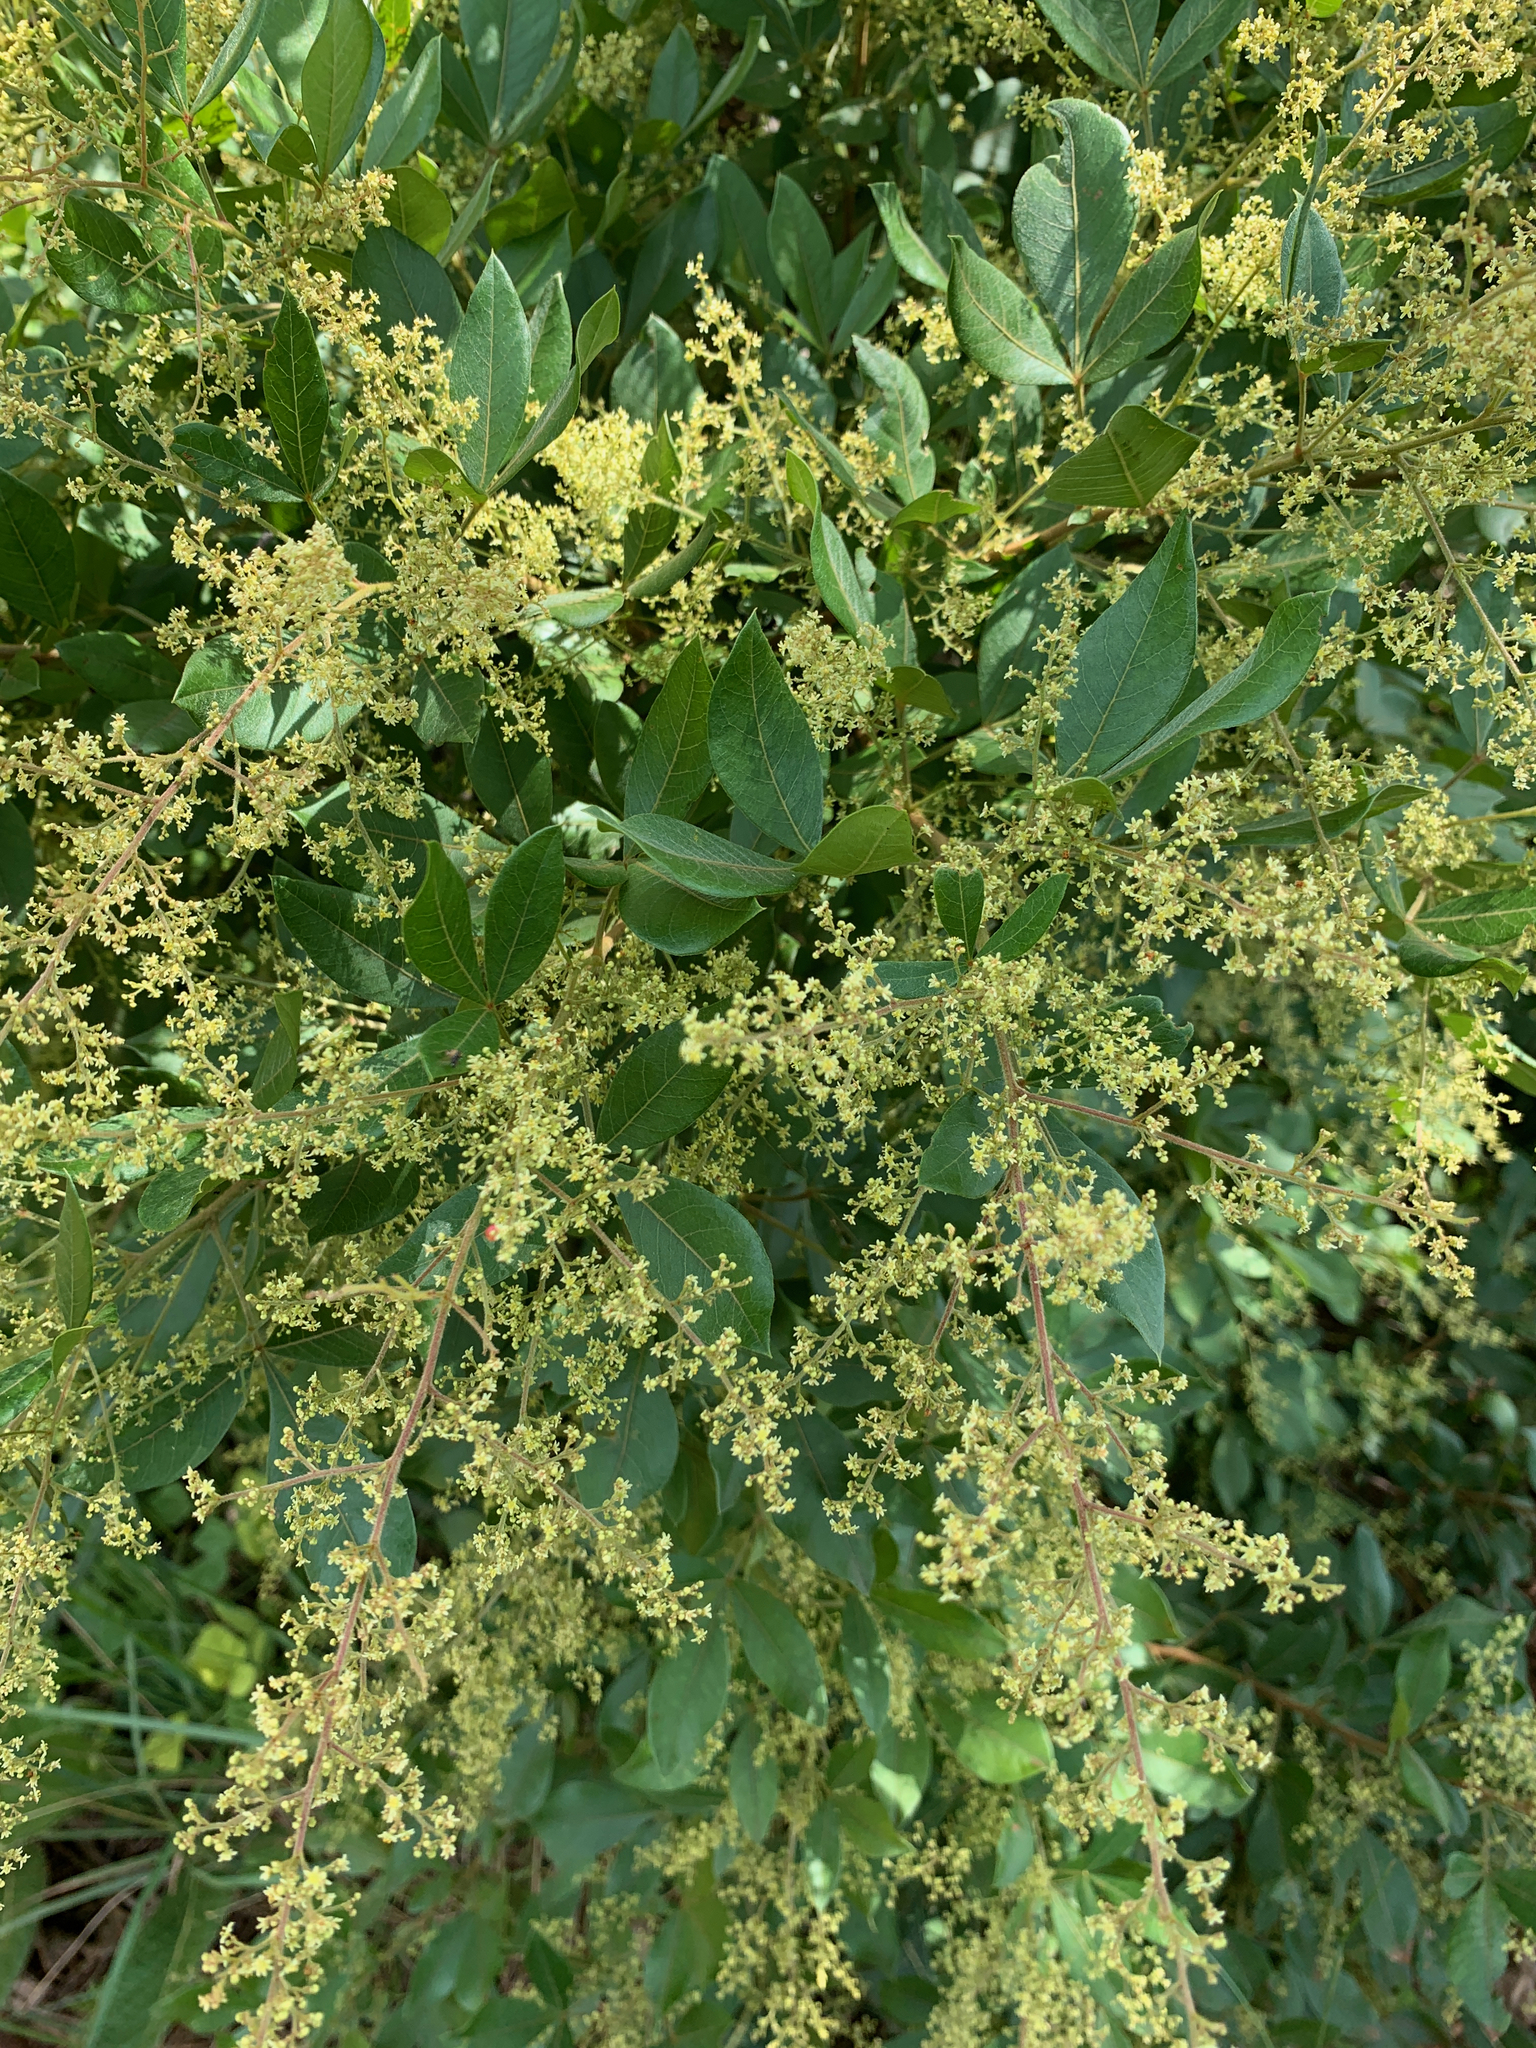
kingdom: Plantae
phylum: Tracheophyta
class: Magnoliopsida
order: Sapindales
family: Anacardiaceae
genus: Searsia
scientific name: Searsia pyroides
